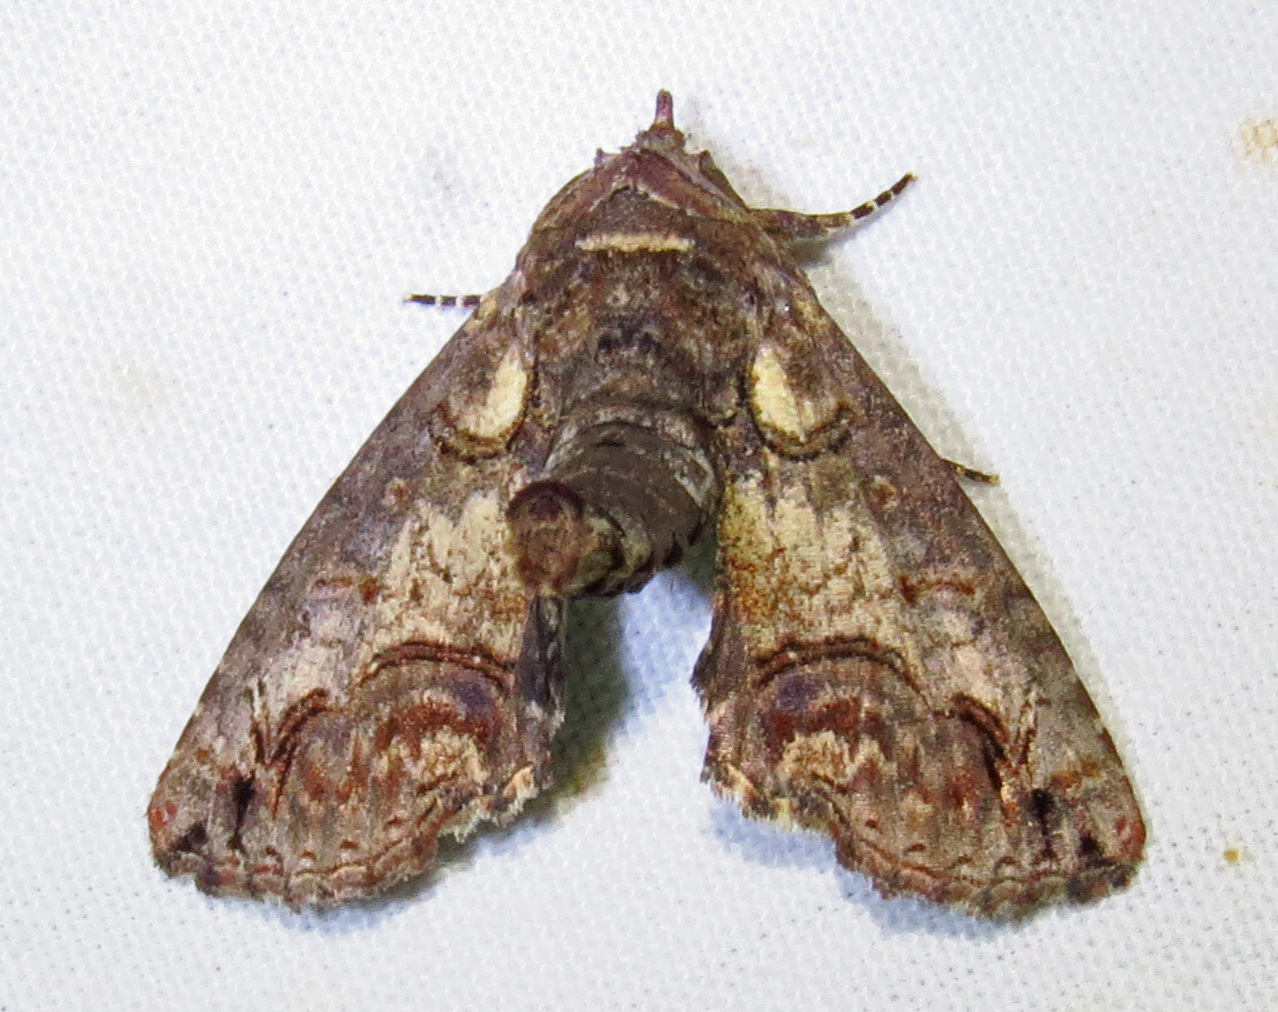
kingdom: Animalia
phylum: Arthropoda
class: Insecta
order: Lepidoptera
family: Euteliidae
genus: Paectes
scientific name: Paectes abrostoloides
